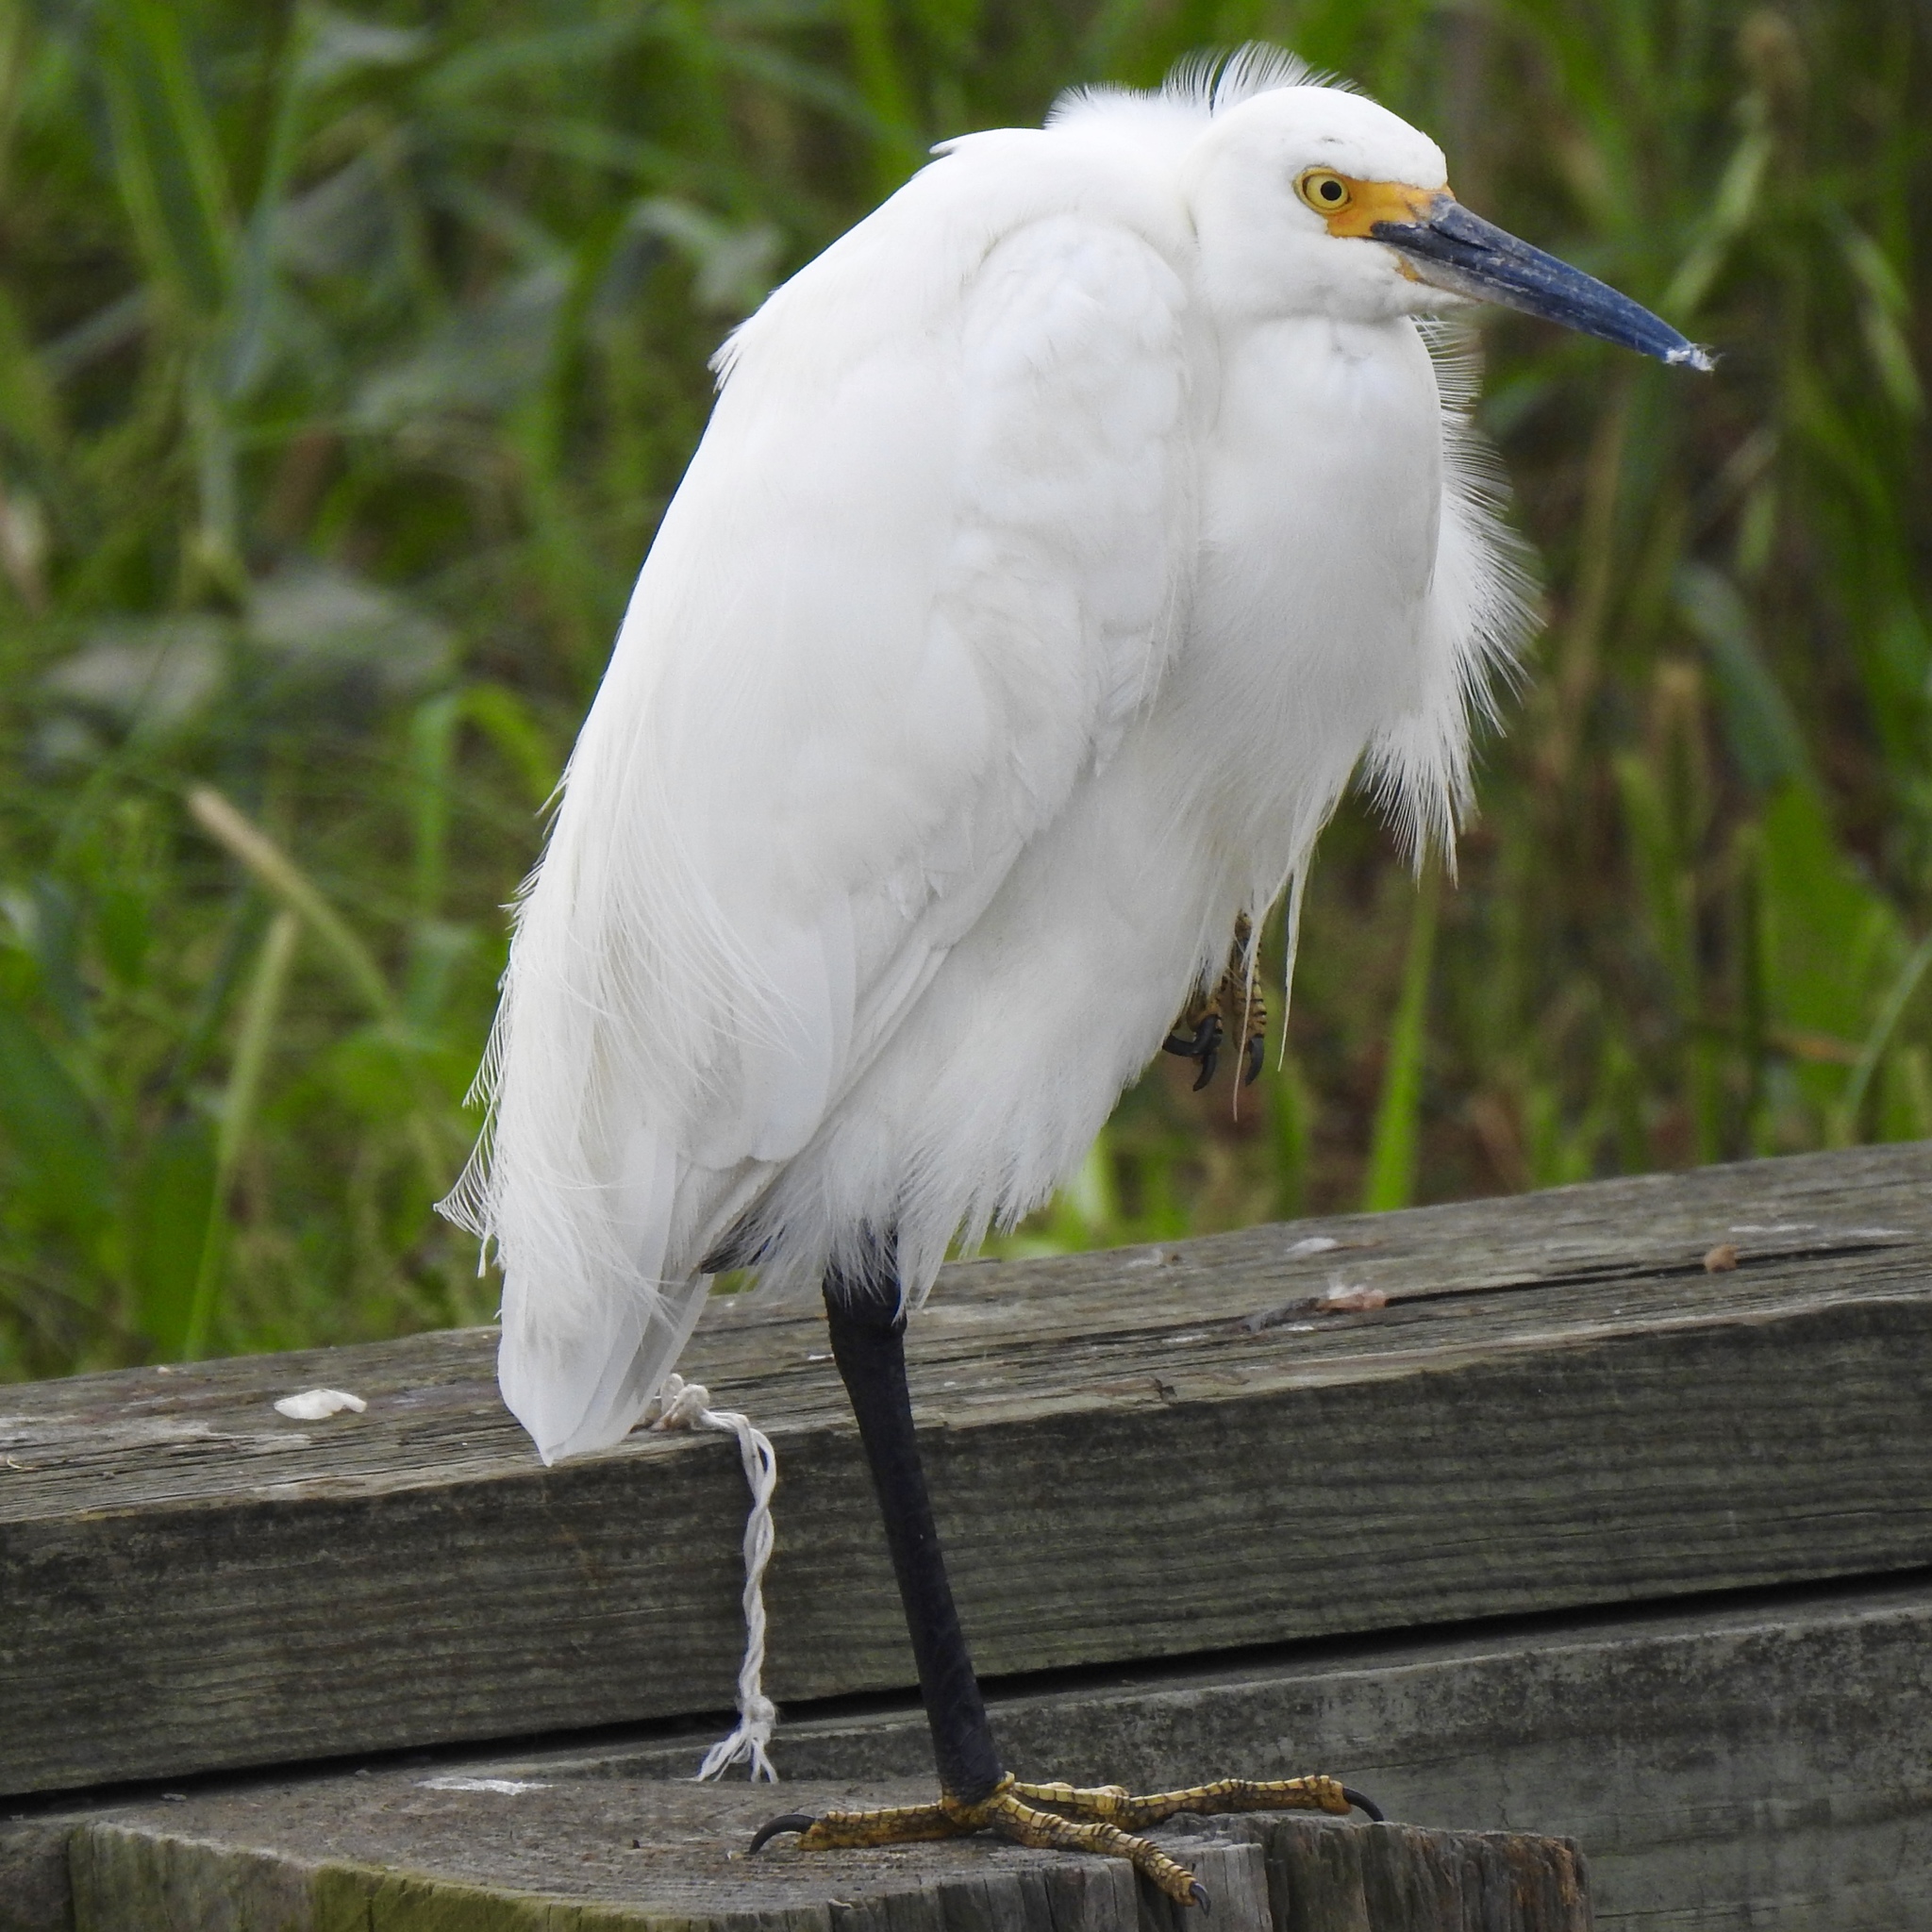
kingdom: Animalia
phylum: Chordata
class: Aves
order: Pelecaniformes
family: Ardeidae
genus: Egretta
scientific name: Egretta thula
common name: Snowy egret
